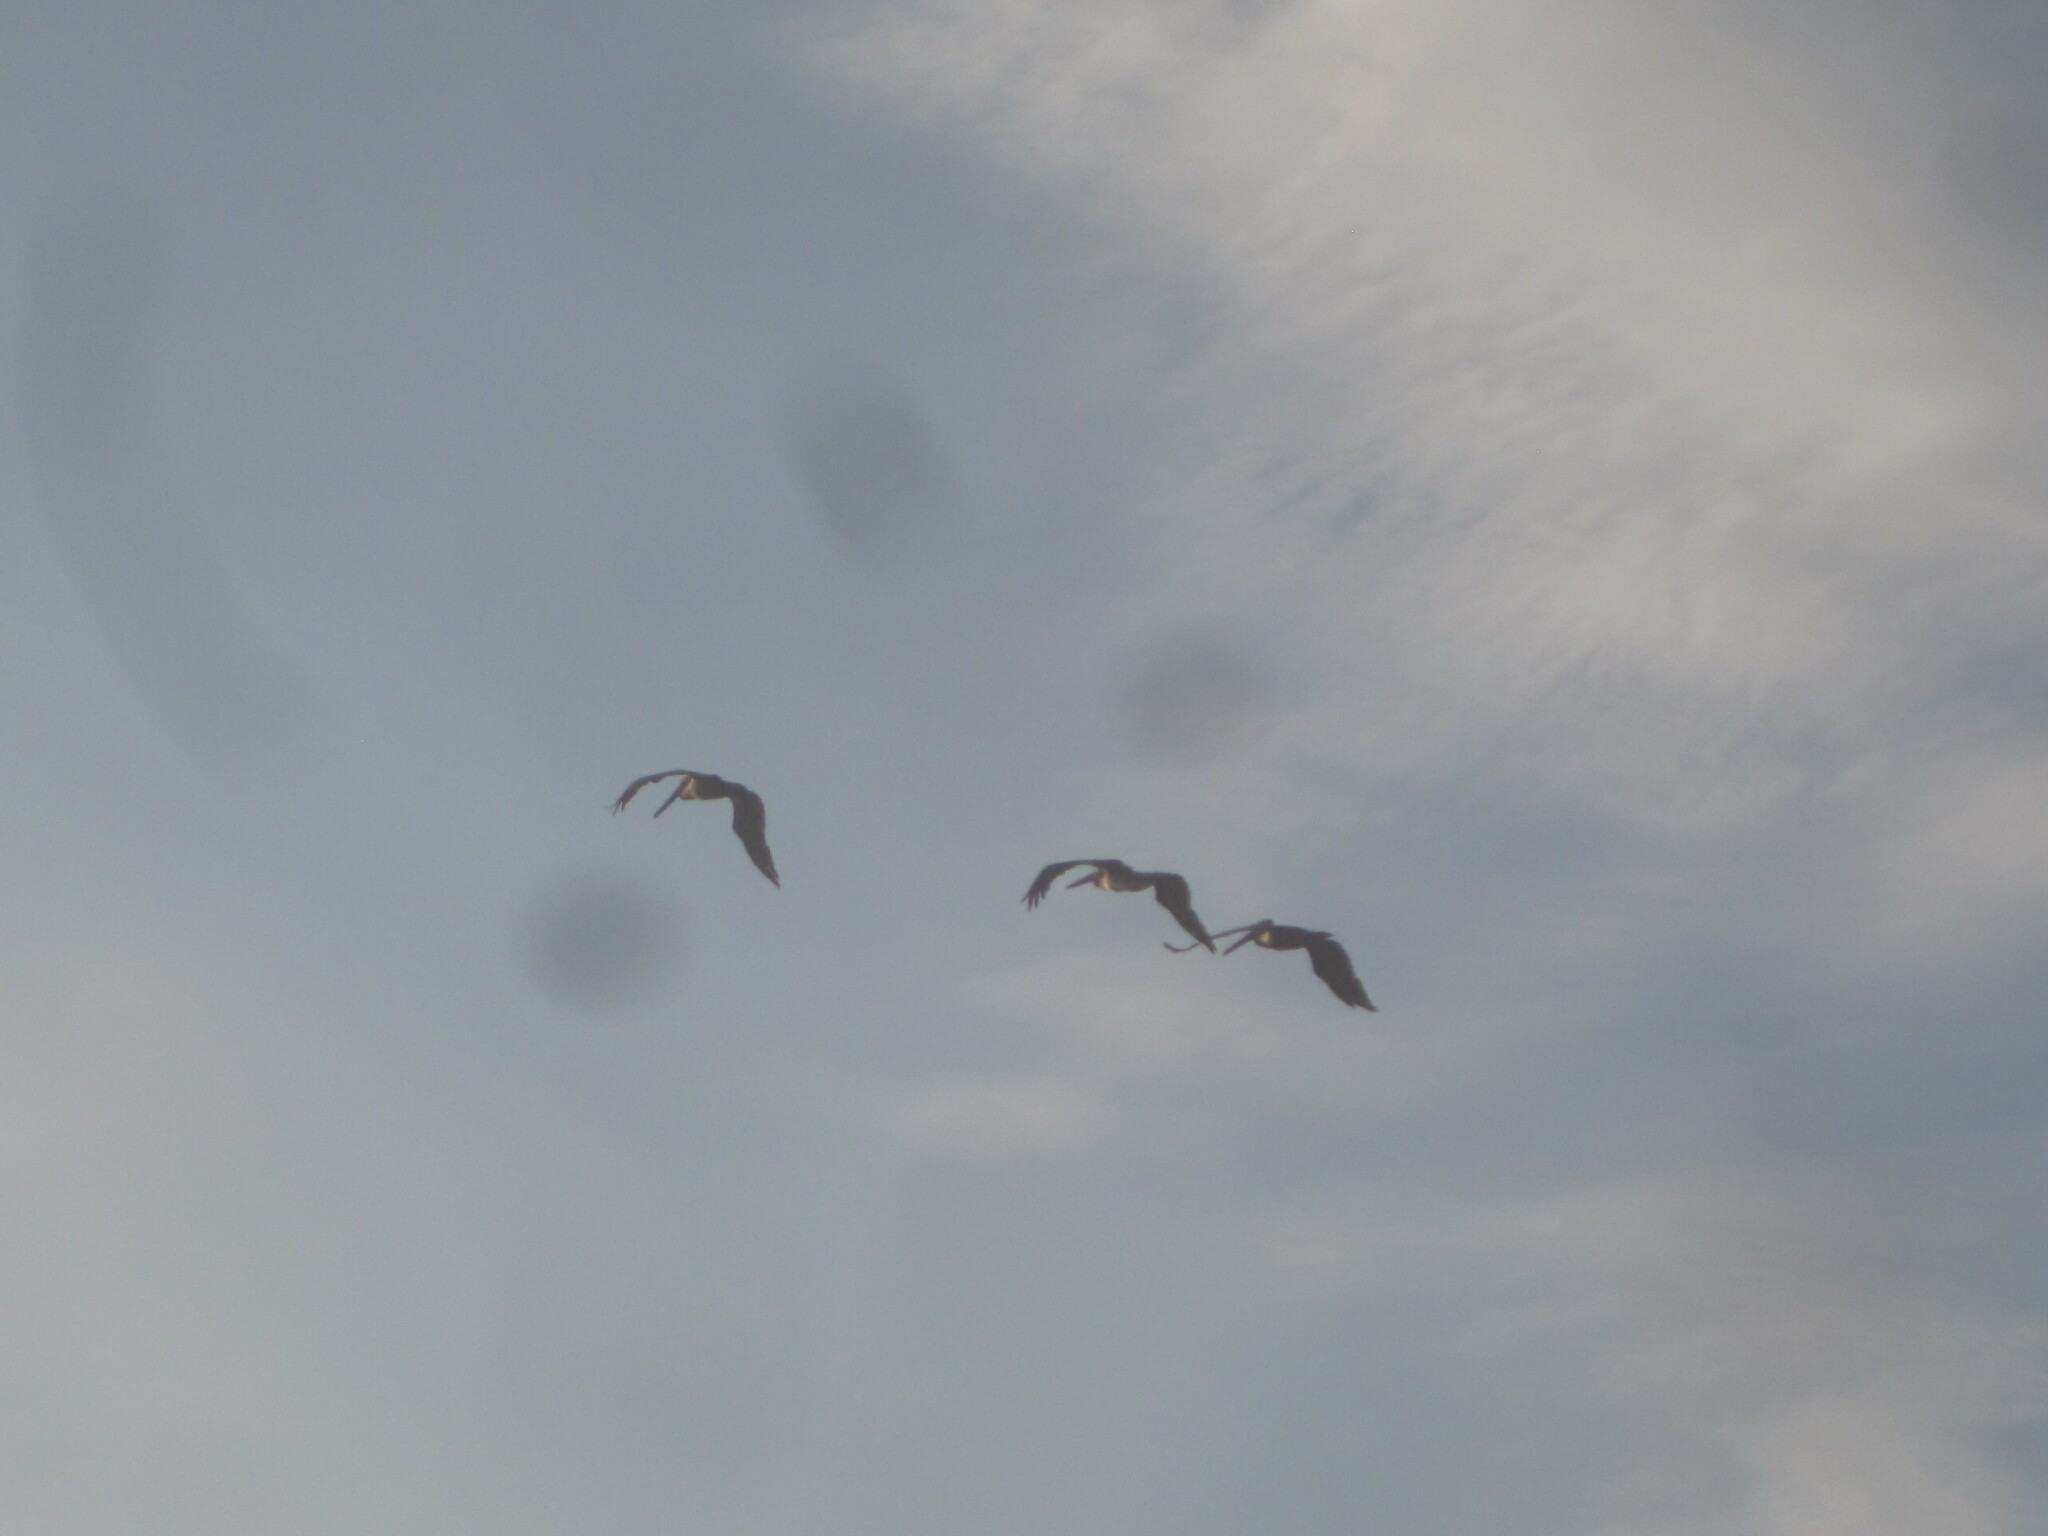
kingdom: Animalia
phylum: Chordata
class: Aves
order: Pelecaniformes
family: Pelecanidae
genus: Pelecanus
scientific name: Pelecanus occidentalis
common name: Brown pelican
